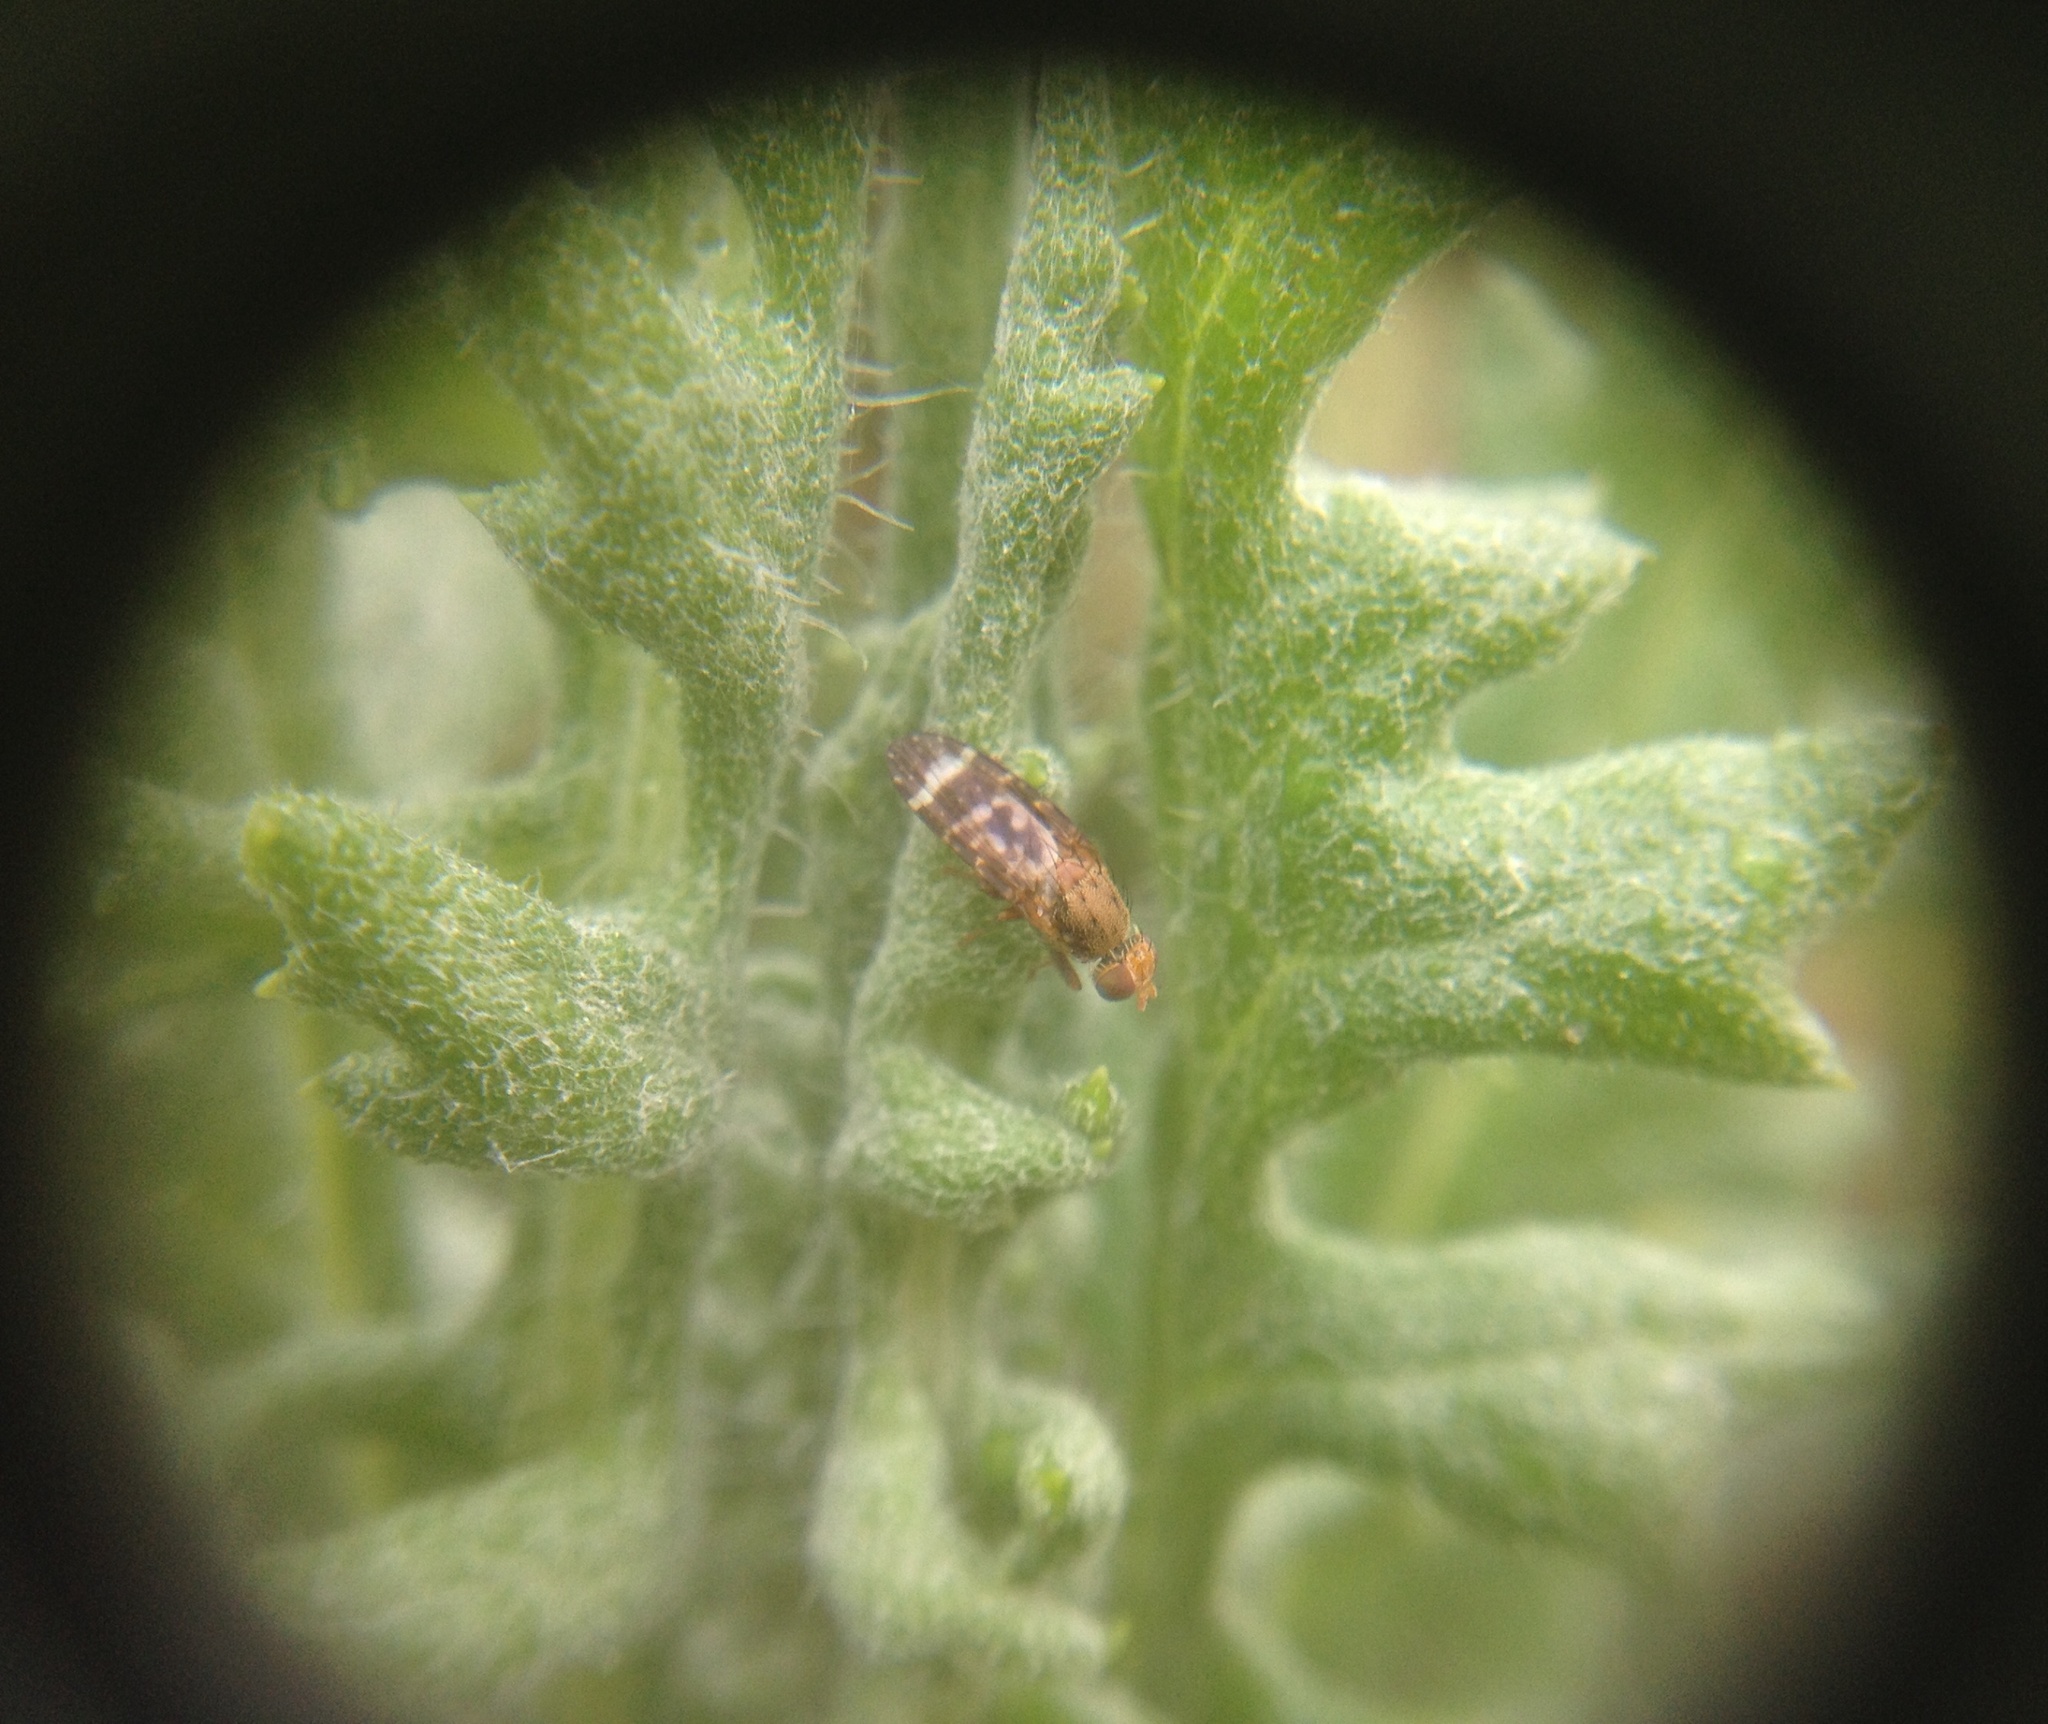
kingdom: Animalia
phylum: Arthropoda
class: Insecta
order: Diptera
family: Tephritidae
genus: Sphenella
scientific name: Sphenella
